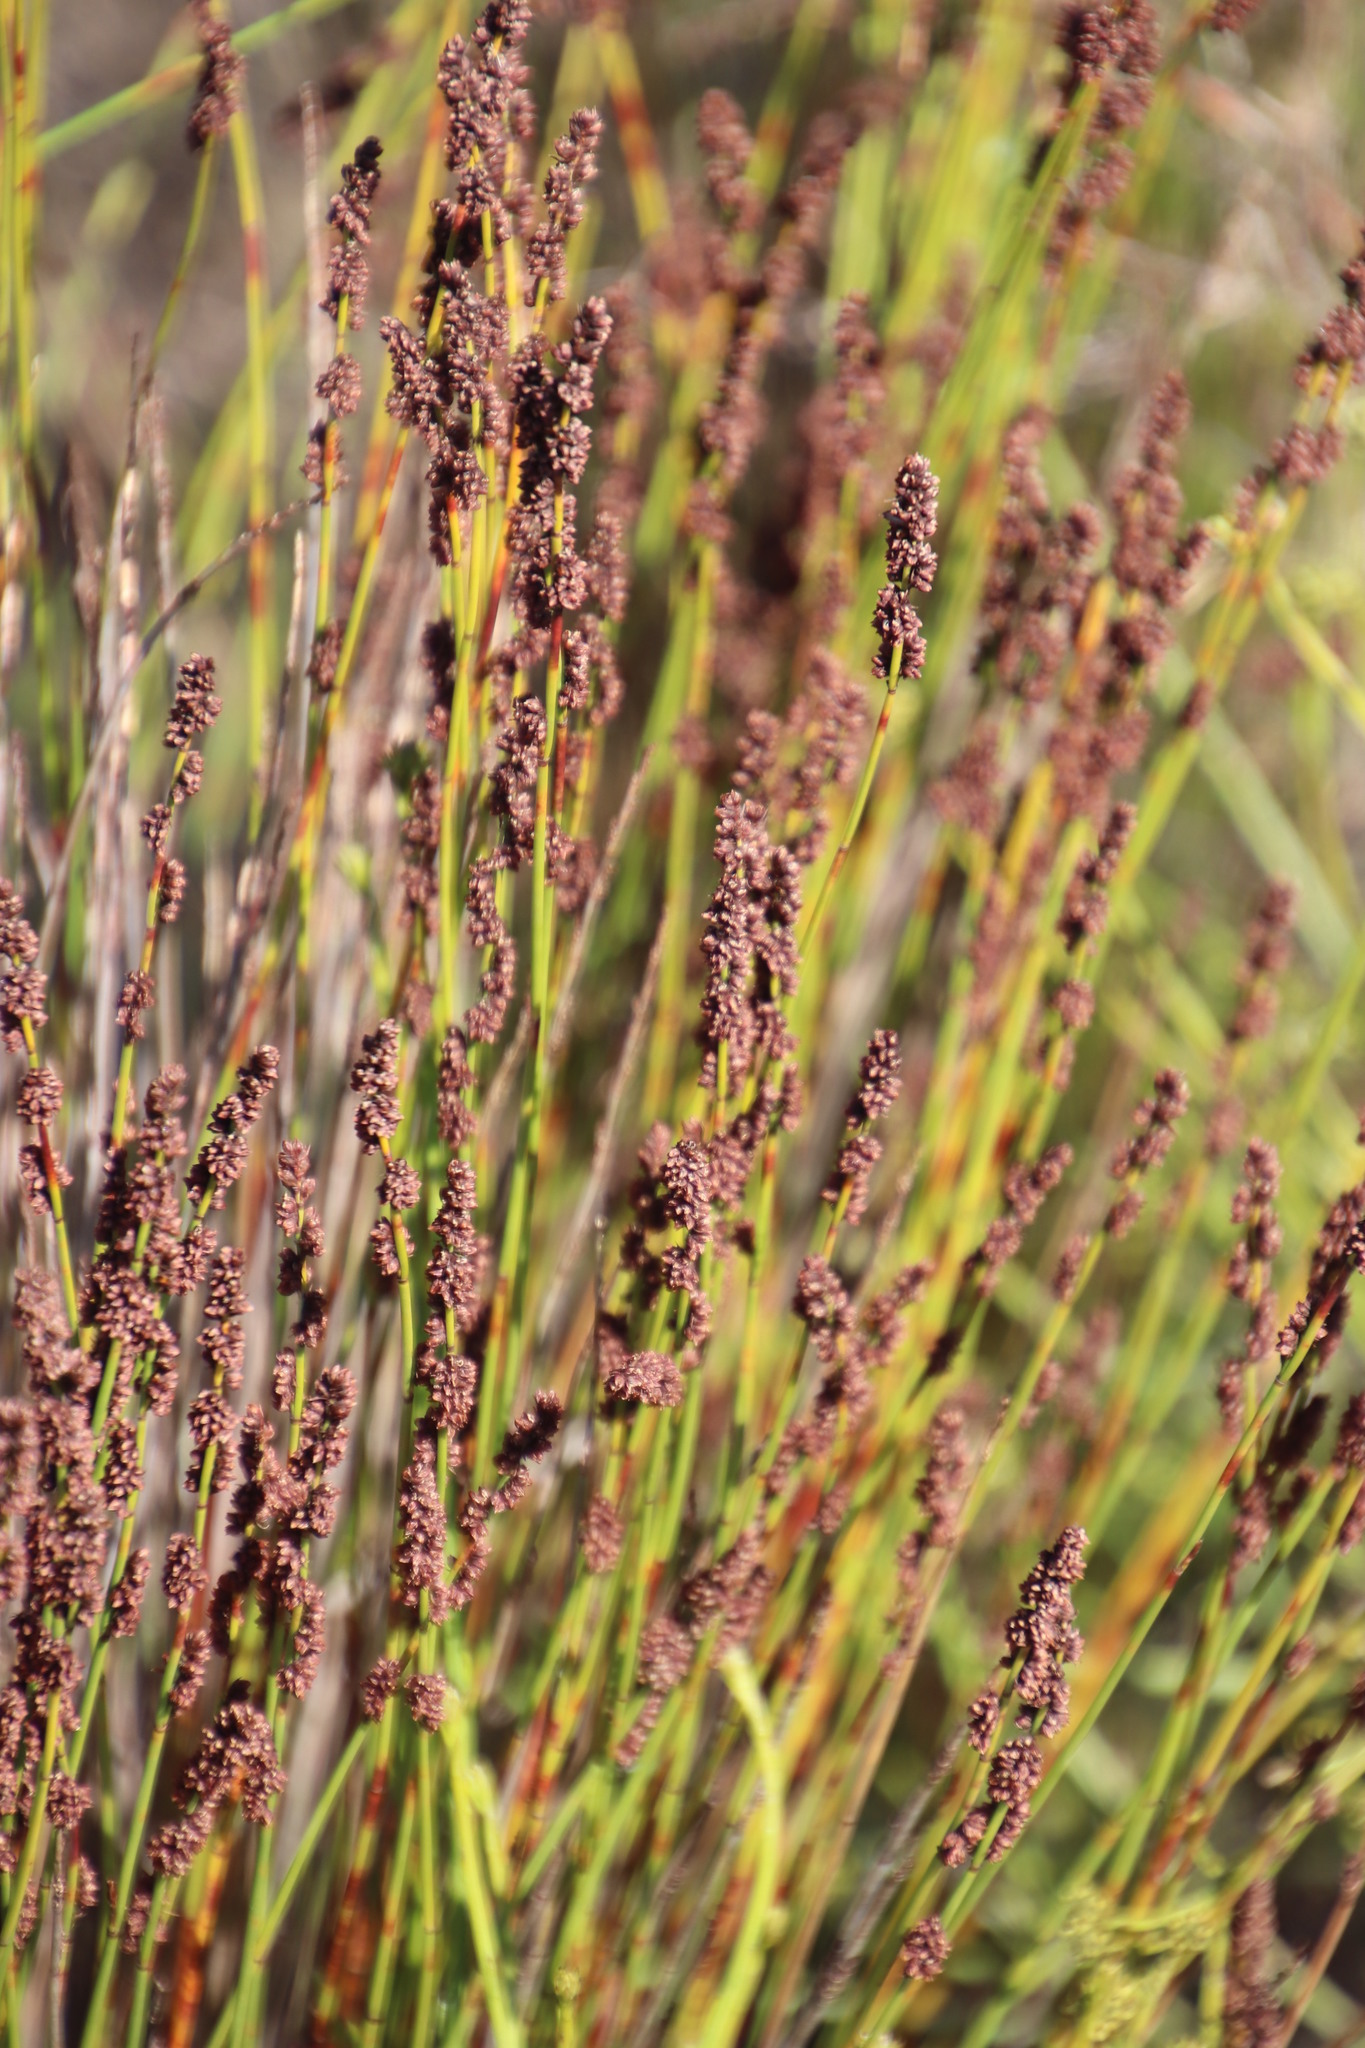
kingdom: Plantae
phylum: Tracheophyta
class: Liliopsida
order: Poales
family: Restionaceae
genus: Elegia
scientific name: Elegia tectorum
